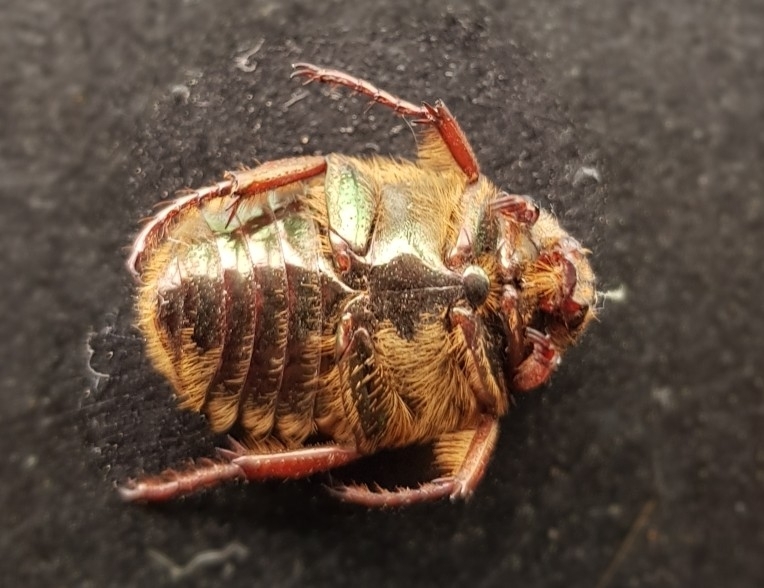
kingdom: Animalia
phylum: Arthropoda
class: Insecta
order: Coleoptera
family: Scarabaeidae
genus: Euphoria
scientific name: Euphoria iridescens
